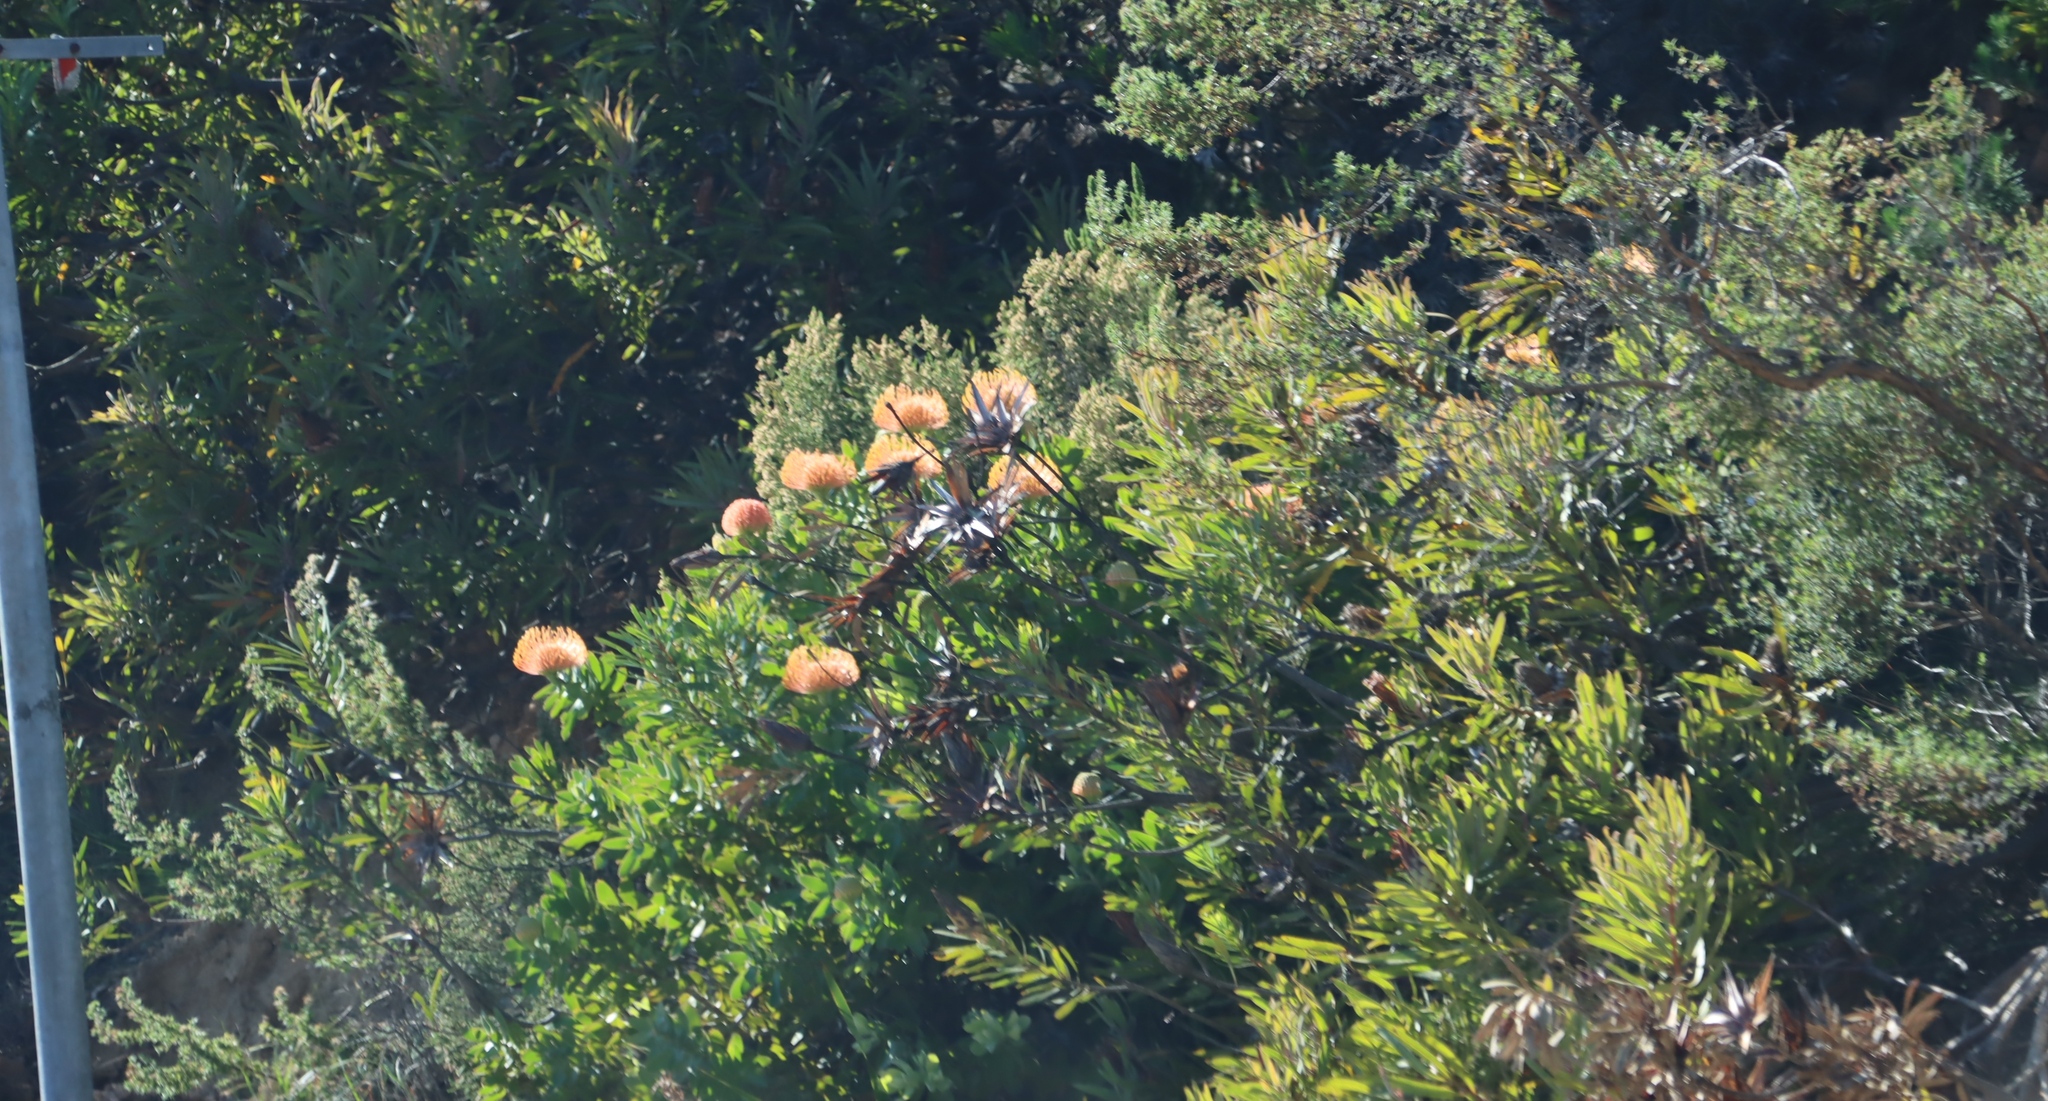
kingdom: Plantae
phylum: Tracheophyta
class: Magnoliopsida
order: Proteales
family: Proteaceae
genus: Leucospermum
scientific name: Leucospermum cordifolium
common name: Red pincushion-protea
